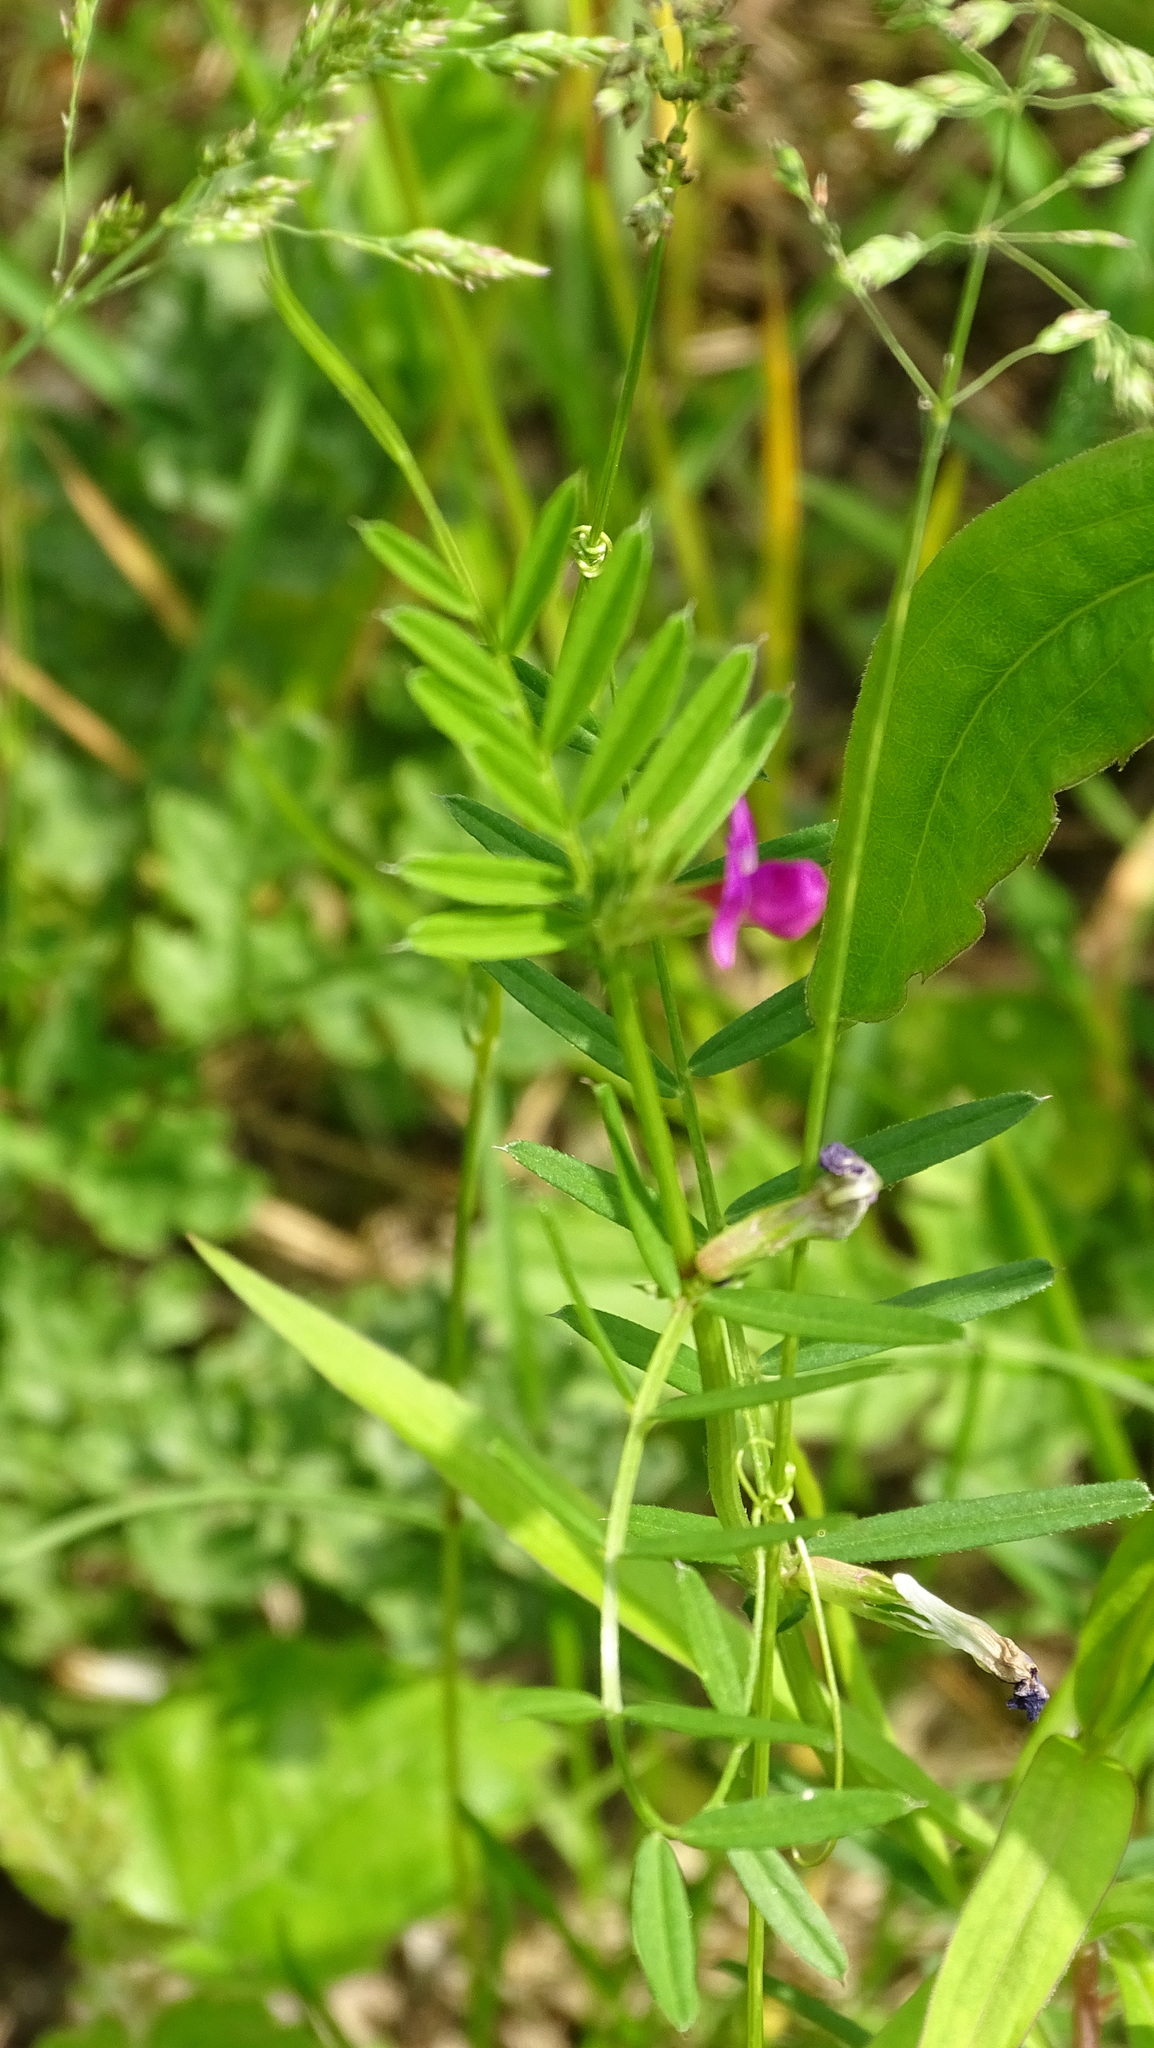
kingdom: Plantae
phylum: Tracheophyta
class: Magnoliopsida
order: Fabales
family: Fabaceae
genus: Vicia
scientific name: Vicia sativa
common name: Garden vetch
